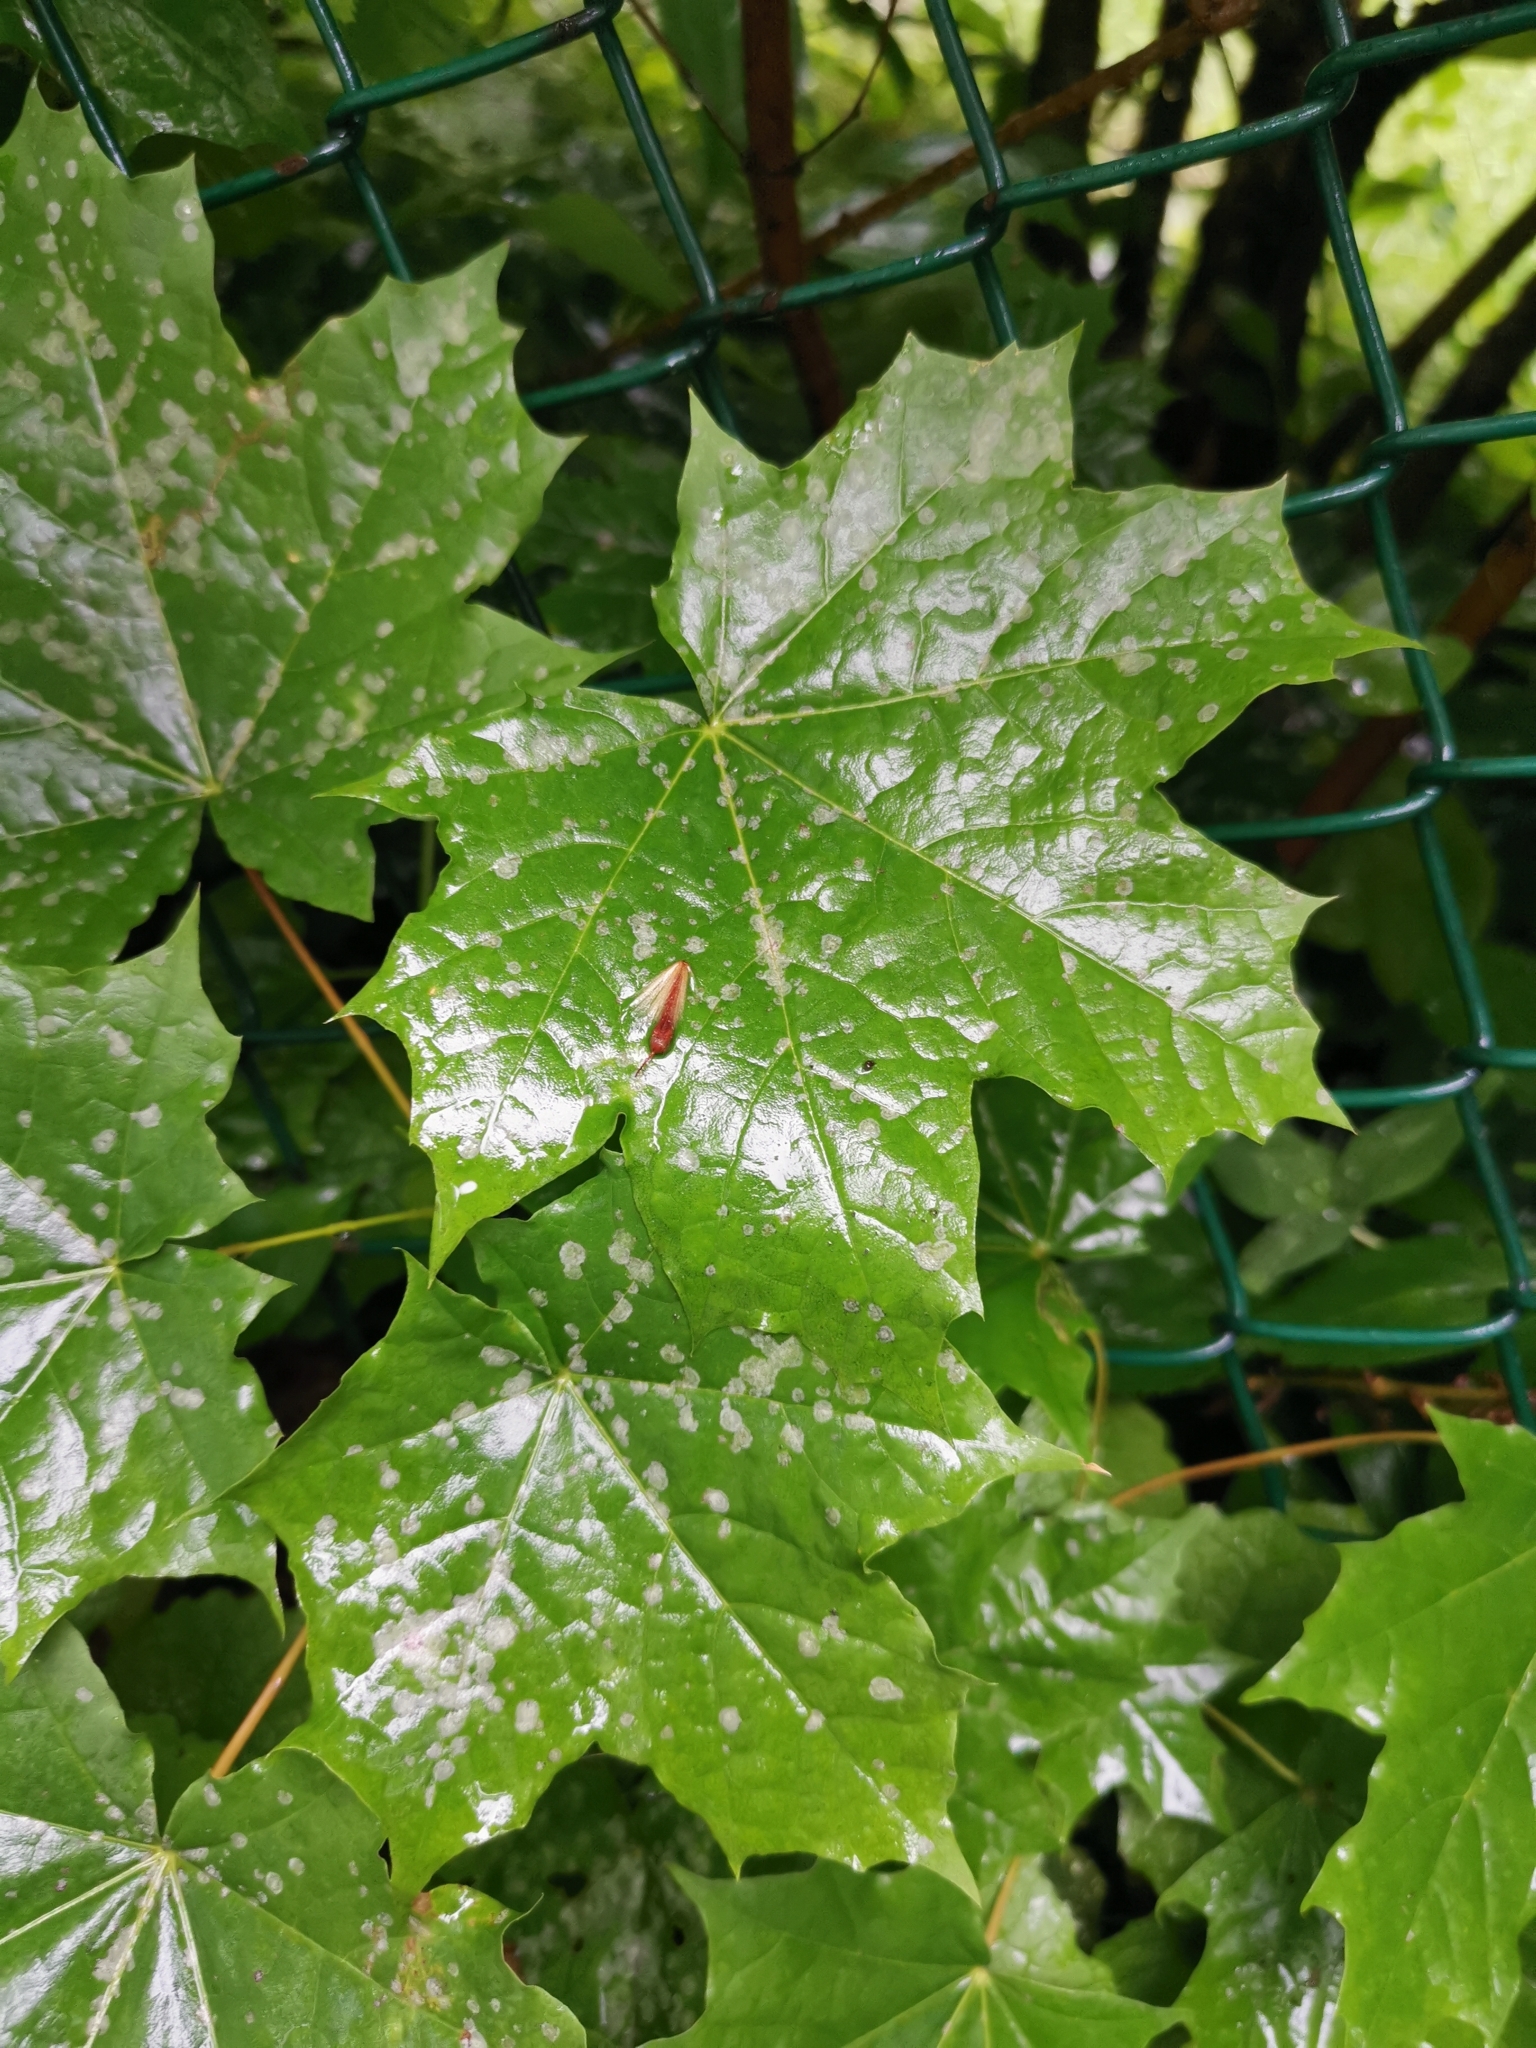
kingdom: Plantae
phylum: Tracheophyta
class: Magnoliopsida
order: Sapindales
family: Sapindaceae
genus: Acer
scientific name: Acer platanoides
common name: Norway maple
